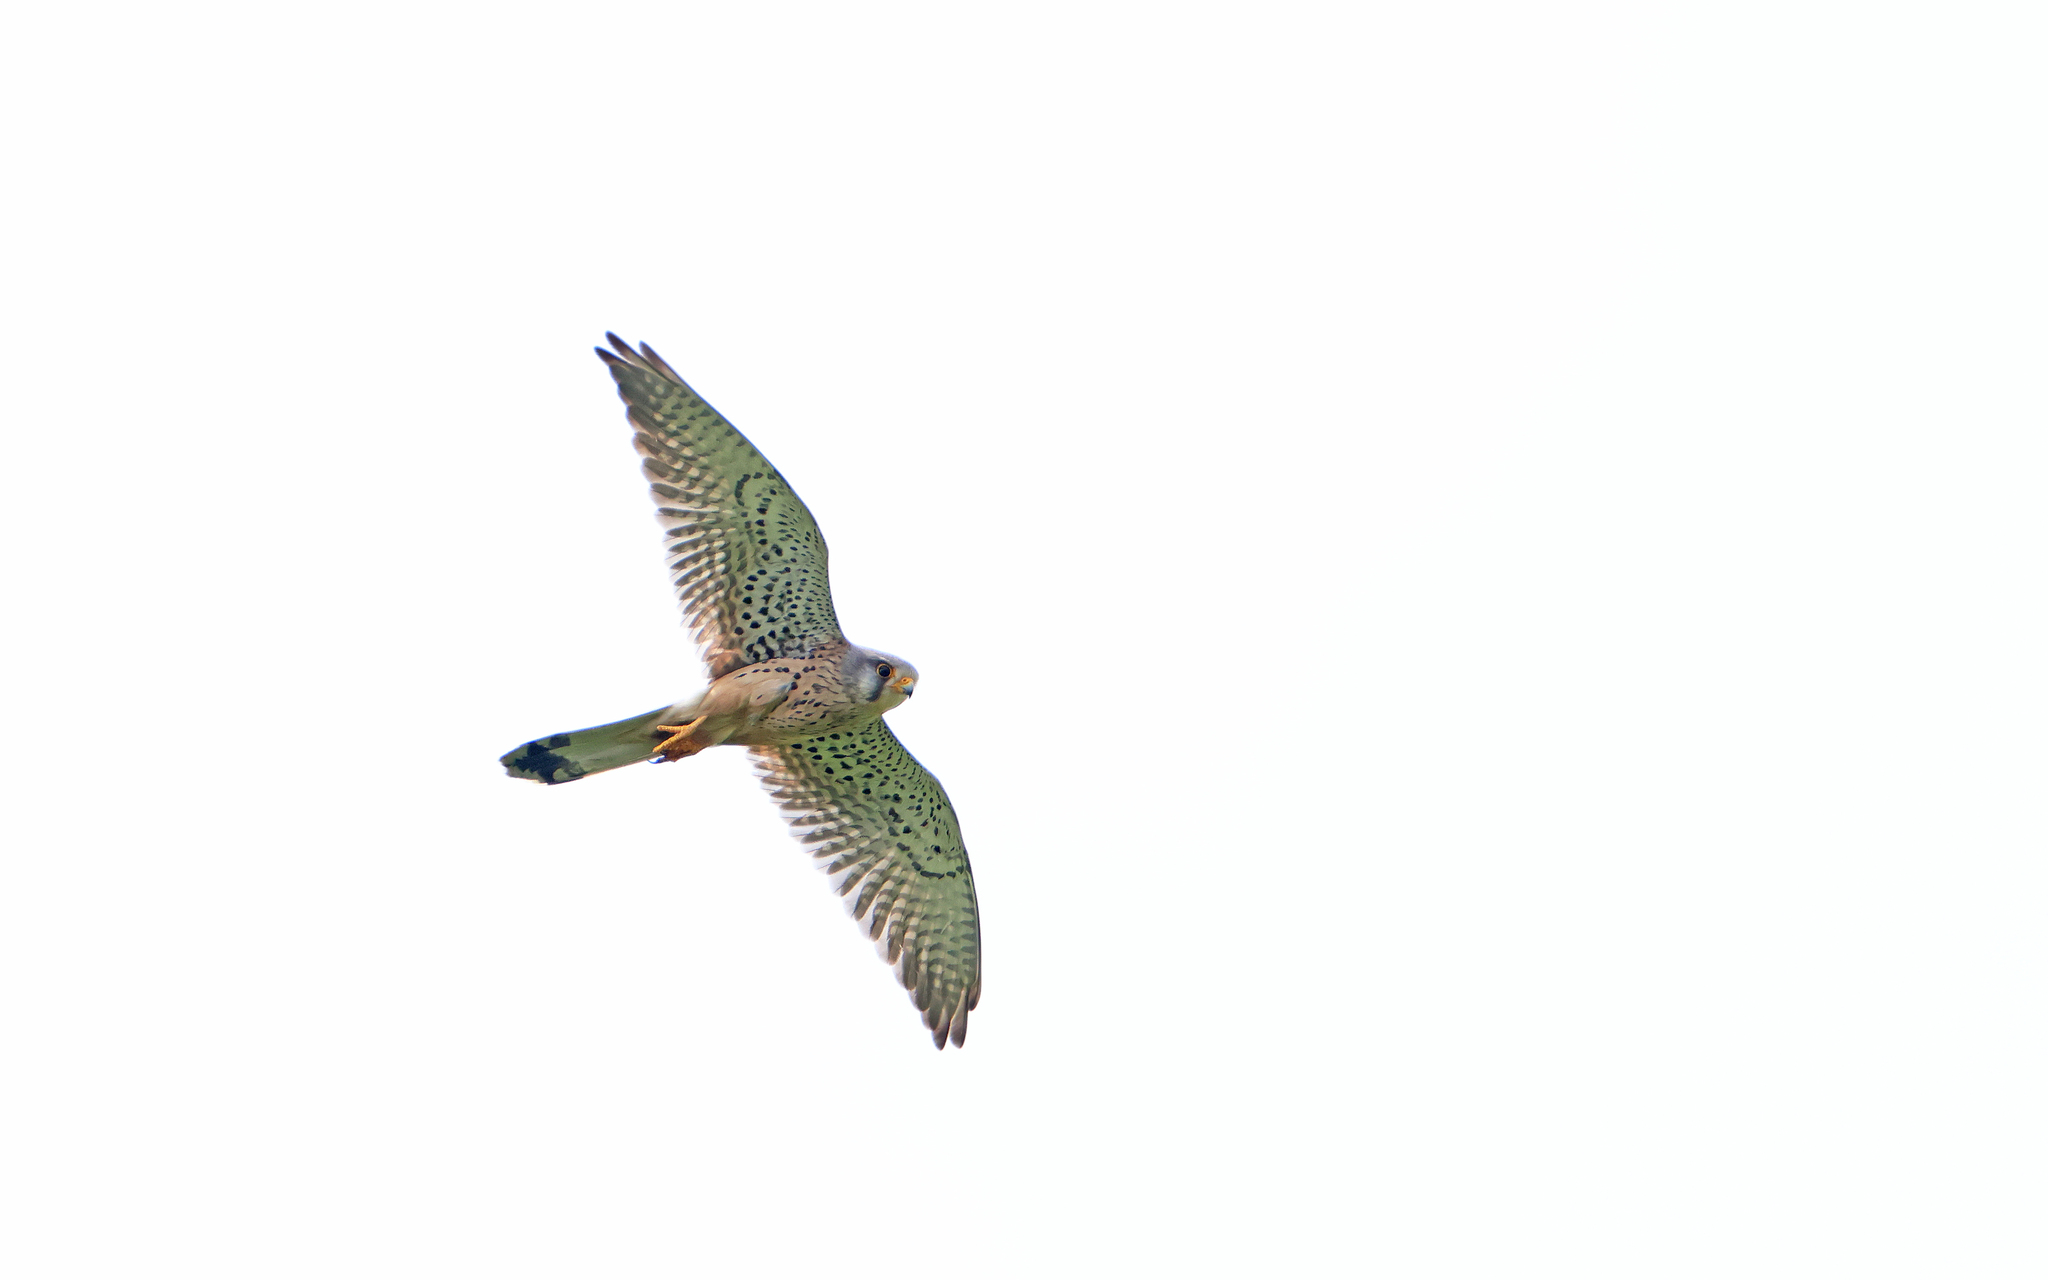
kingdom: Animalia
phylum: Chordata
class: Aves
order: Falconiformes
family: Falconidae
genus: Falco
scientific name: Falco tinnunculus
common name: Common kestrel
